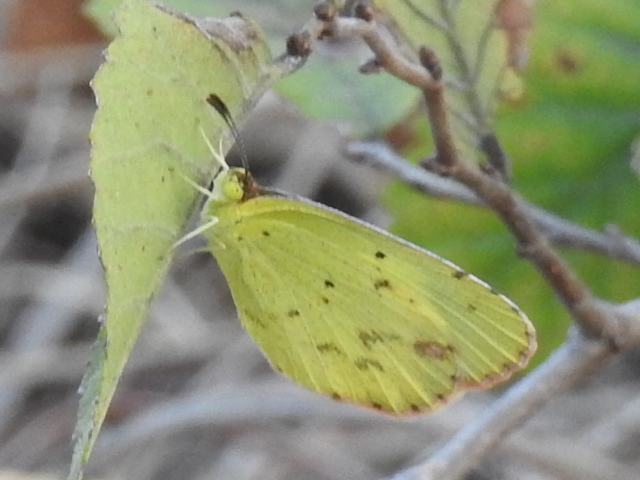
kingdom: Animalia
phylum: Arthropoda
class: Insecta
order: Lepidoptera
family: Pieridae
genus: Pyrisitia
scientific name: Pyrisitia lisa
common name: Little yellow
